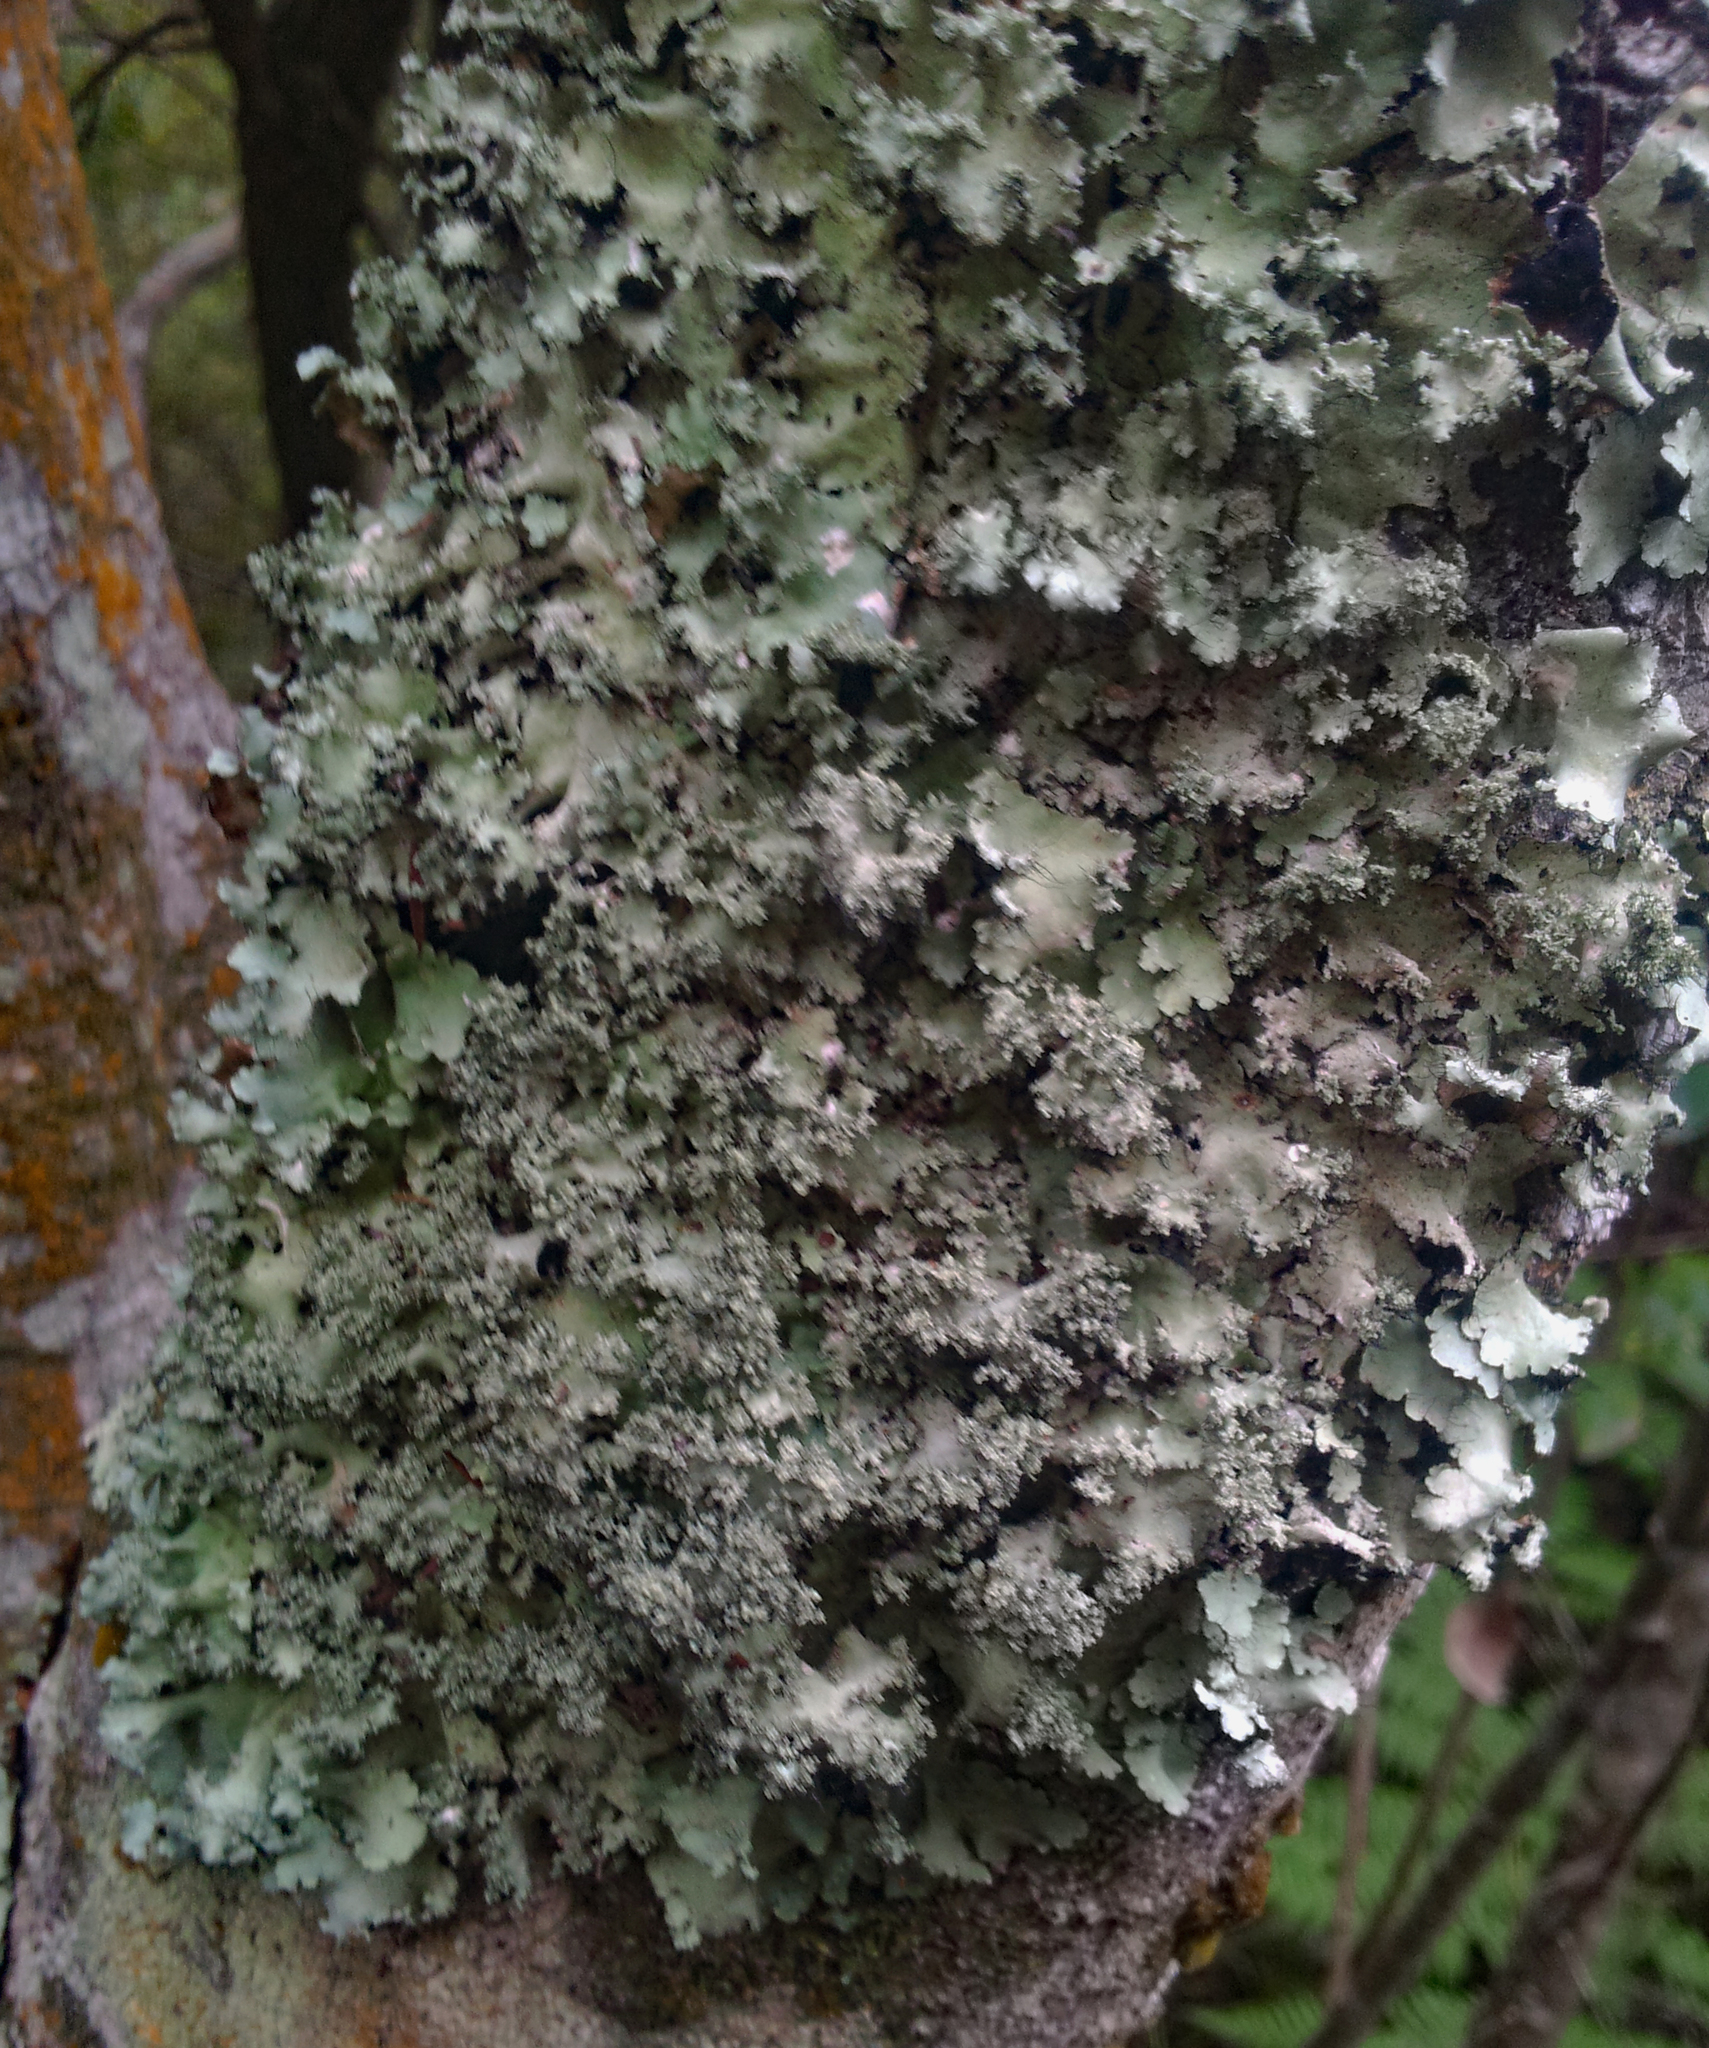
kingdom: Fungi
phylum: Ascomycota
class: Lecanoromycetes
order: Lecanorales
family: Parmeliaceae
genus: Parmotrema
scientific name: Parmotrema mellissii
